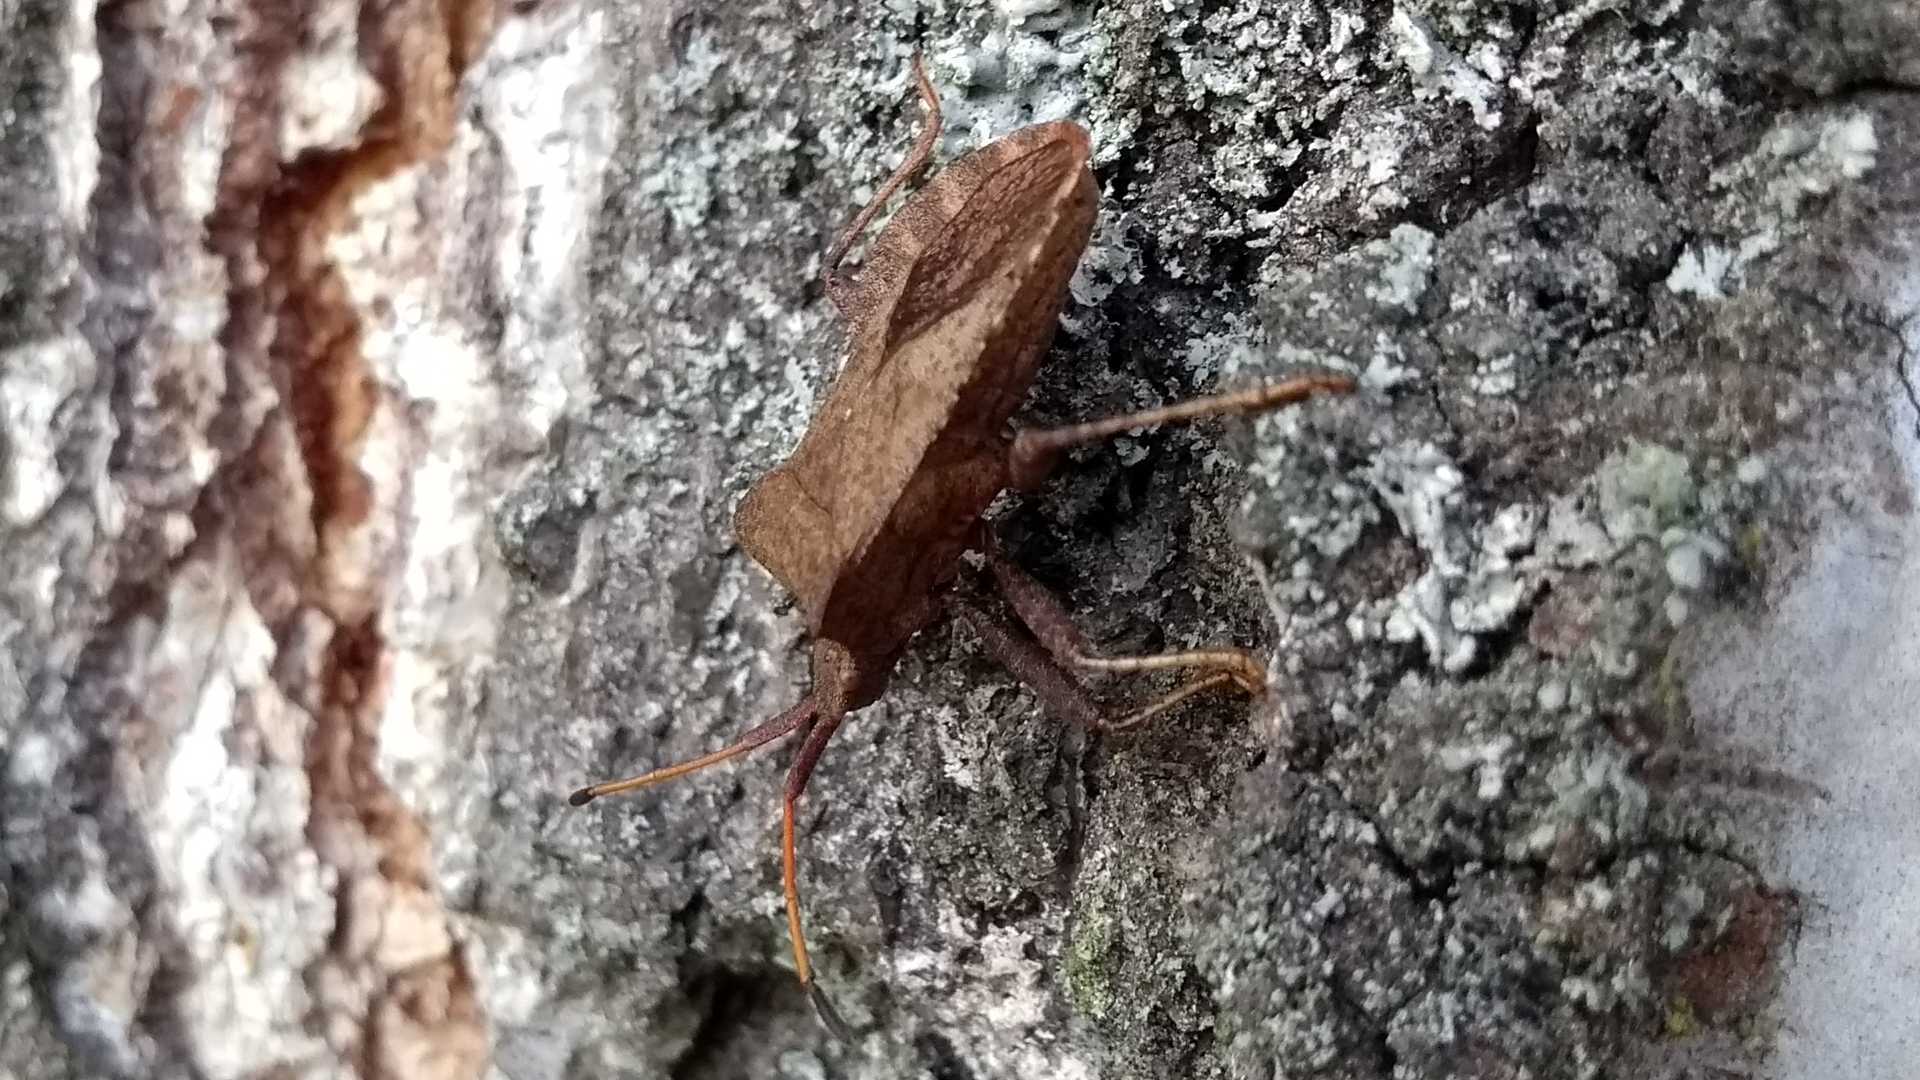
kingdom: Animalia
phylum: Arthropoda
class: Insecta
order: Hemiptera
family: Coreidae
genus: Coreus
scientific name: Coreus marginatus
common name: Dock bug
